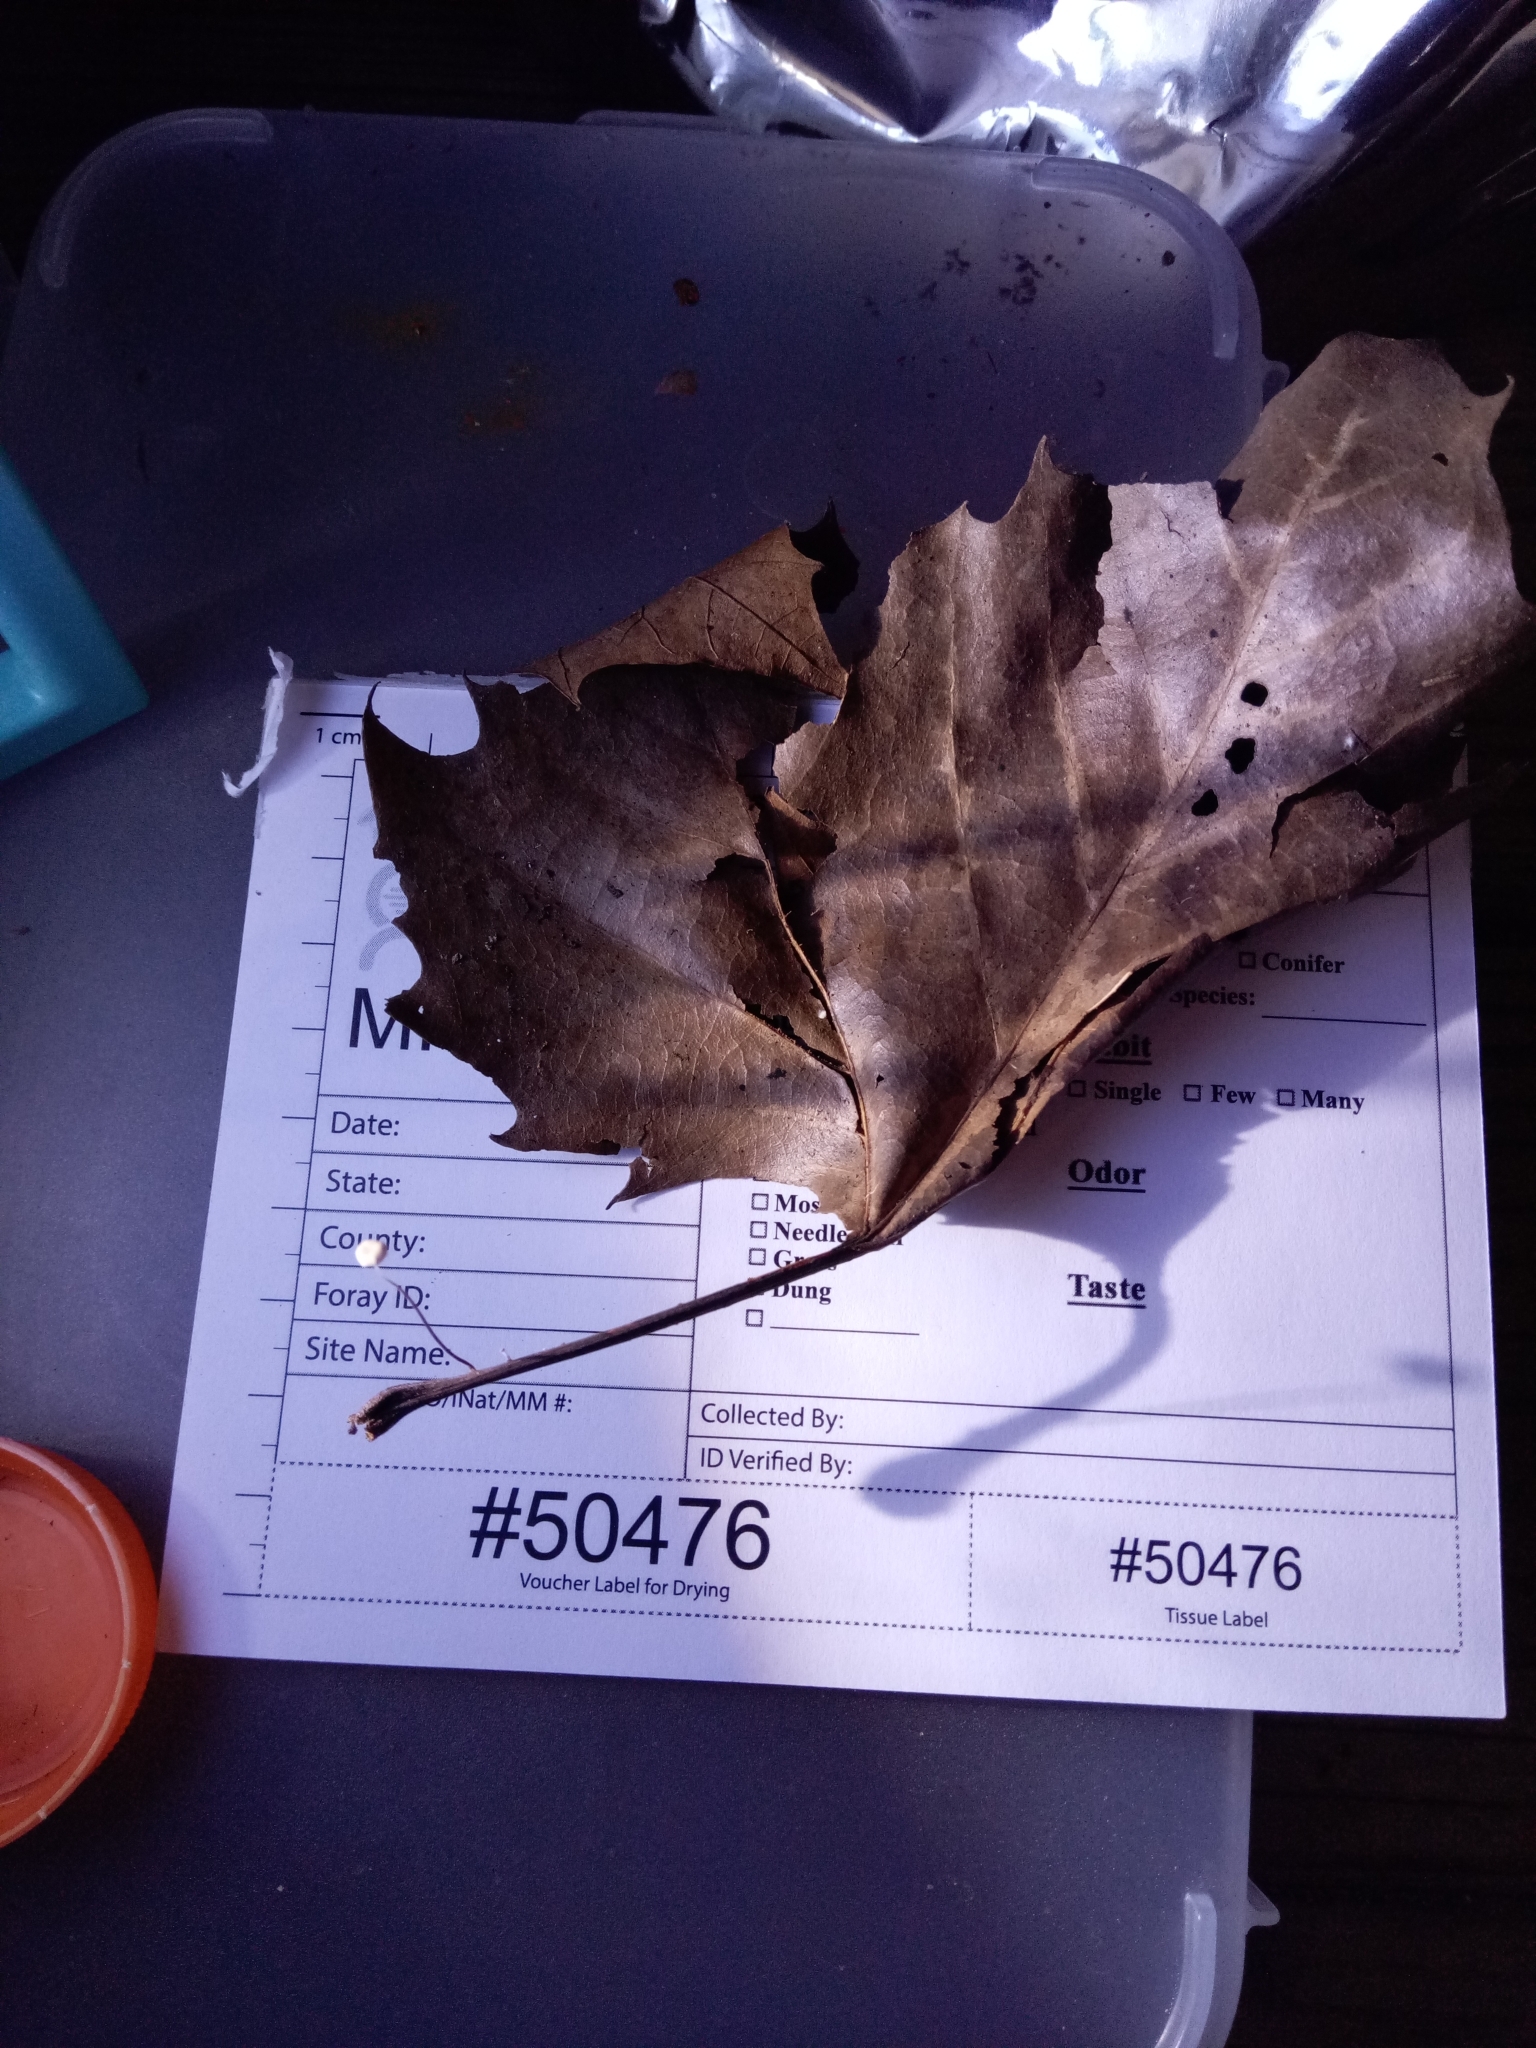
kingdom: Fungi
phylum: Basidiomycota
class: Agaricomycetes
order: Agaricales
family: Marasmiaceae
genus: Marasmius
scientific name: Marasmius felix
